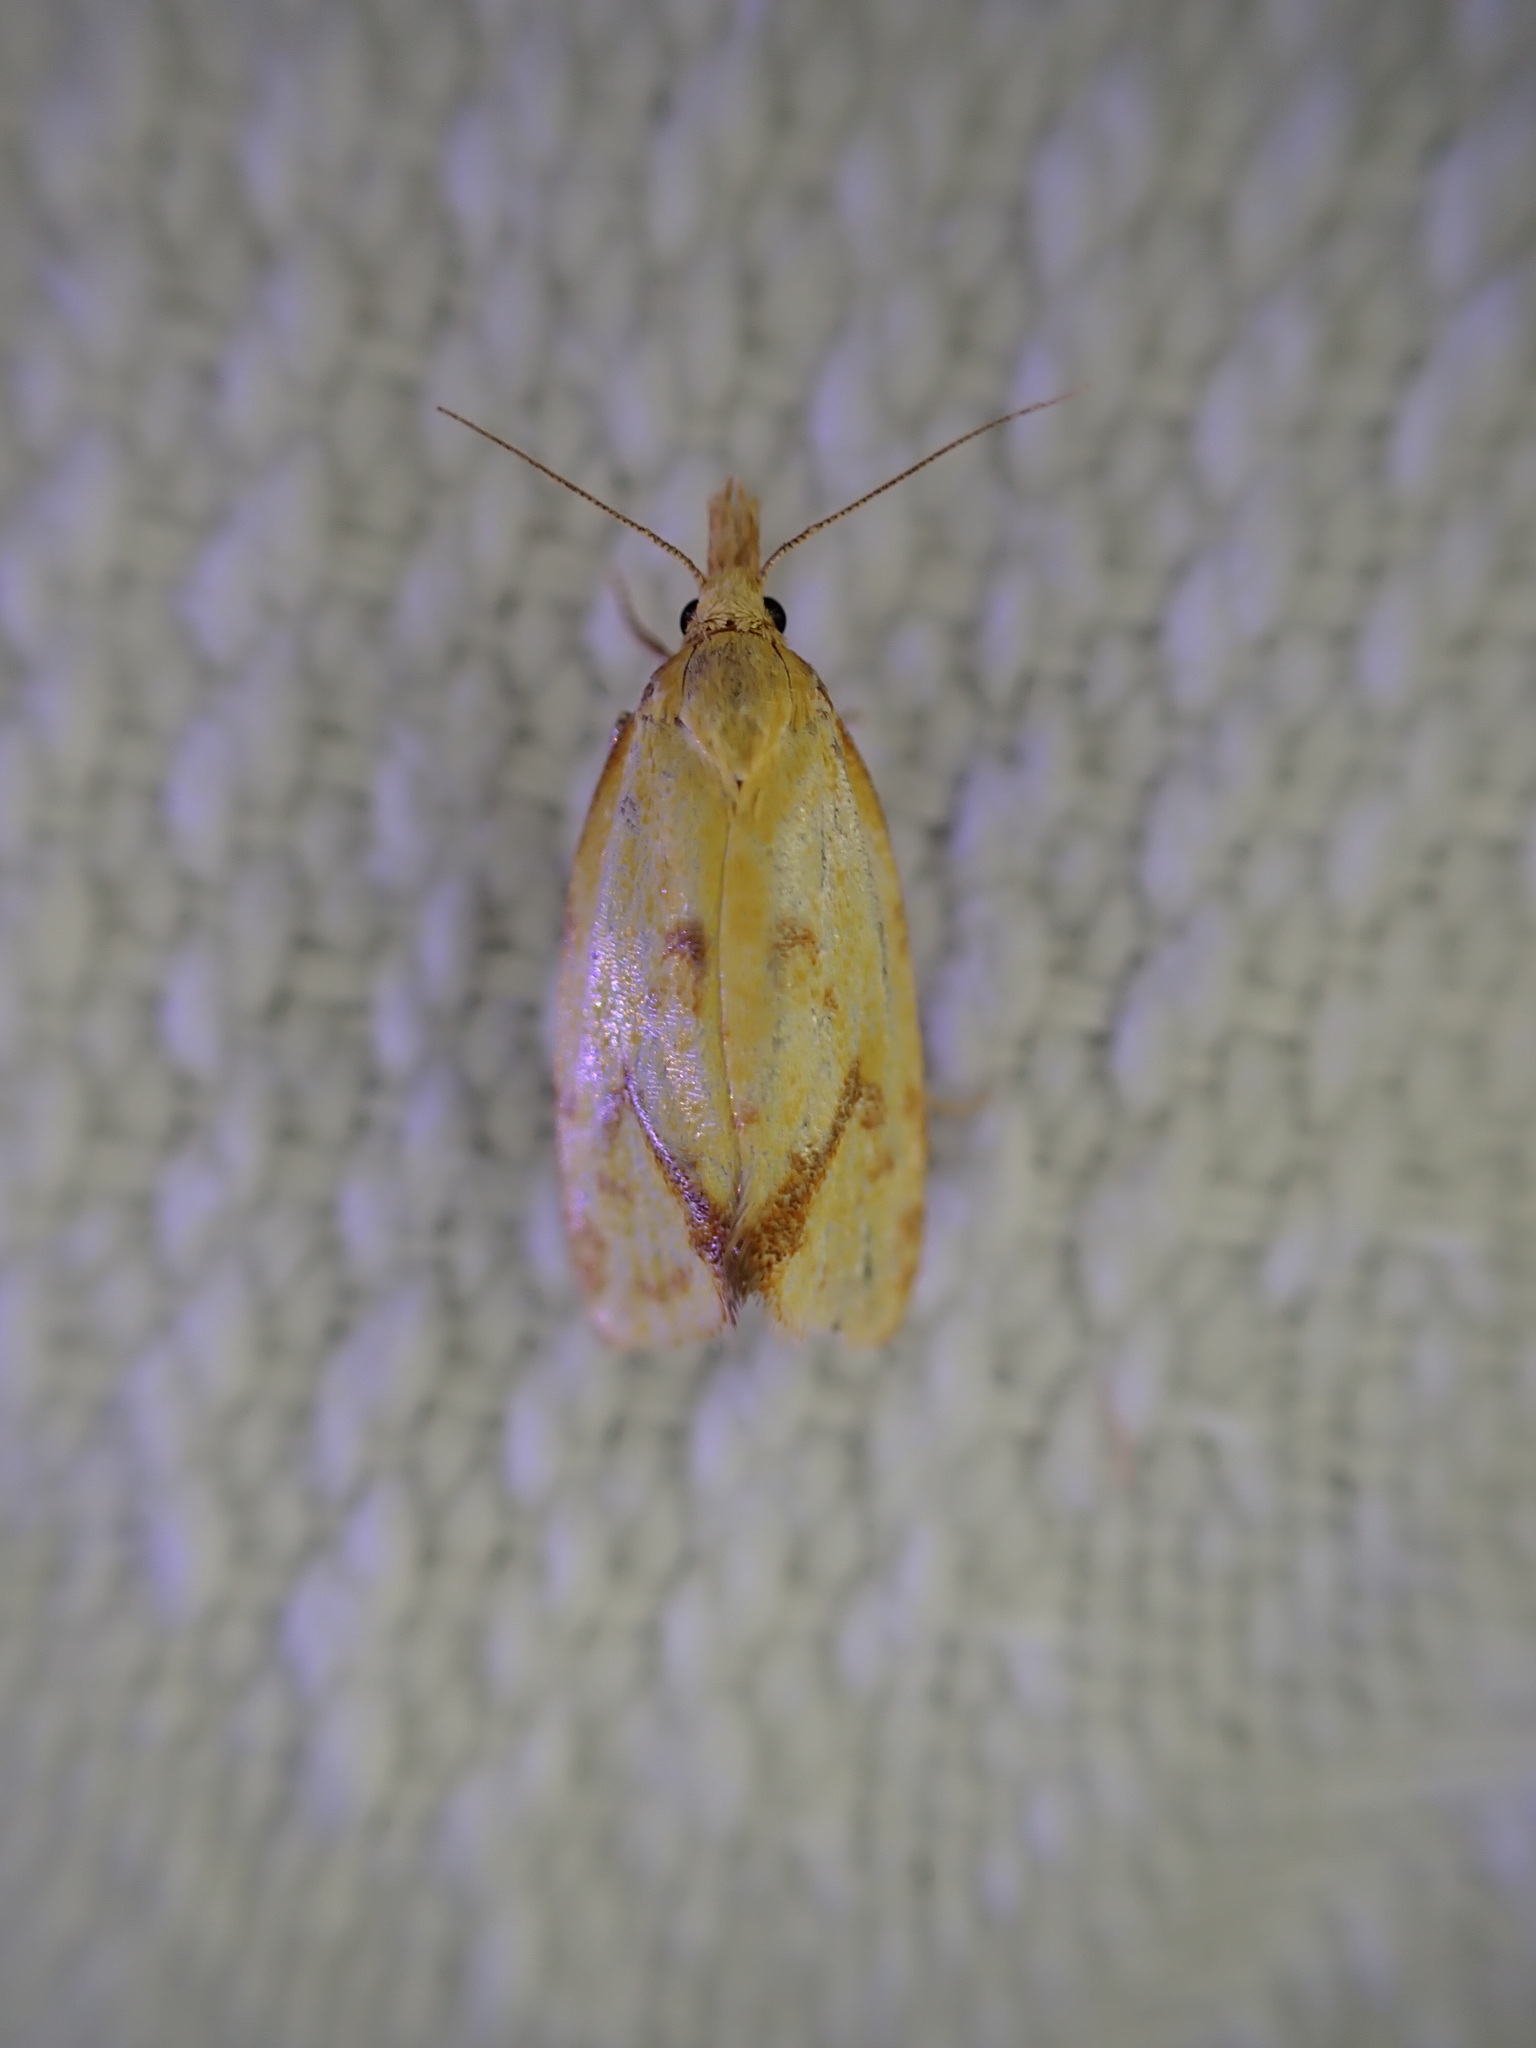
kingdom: Animalia
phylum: Arthropoda
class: Insecta
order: Lepidoptera
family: Tortricidae
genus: Agapeta
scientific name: Agapeta hamana
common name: Common yellow conch
